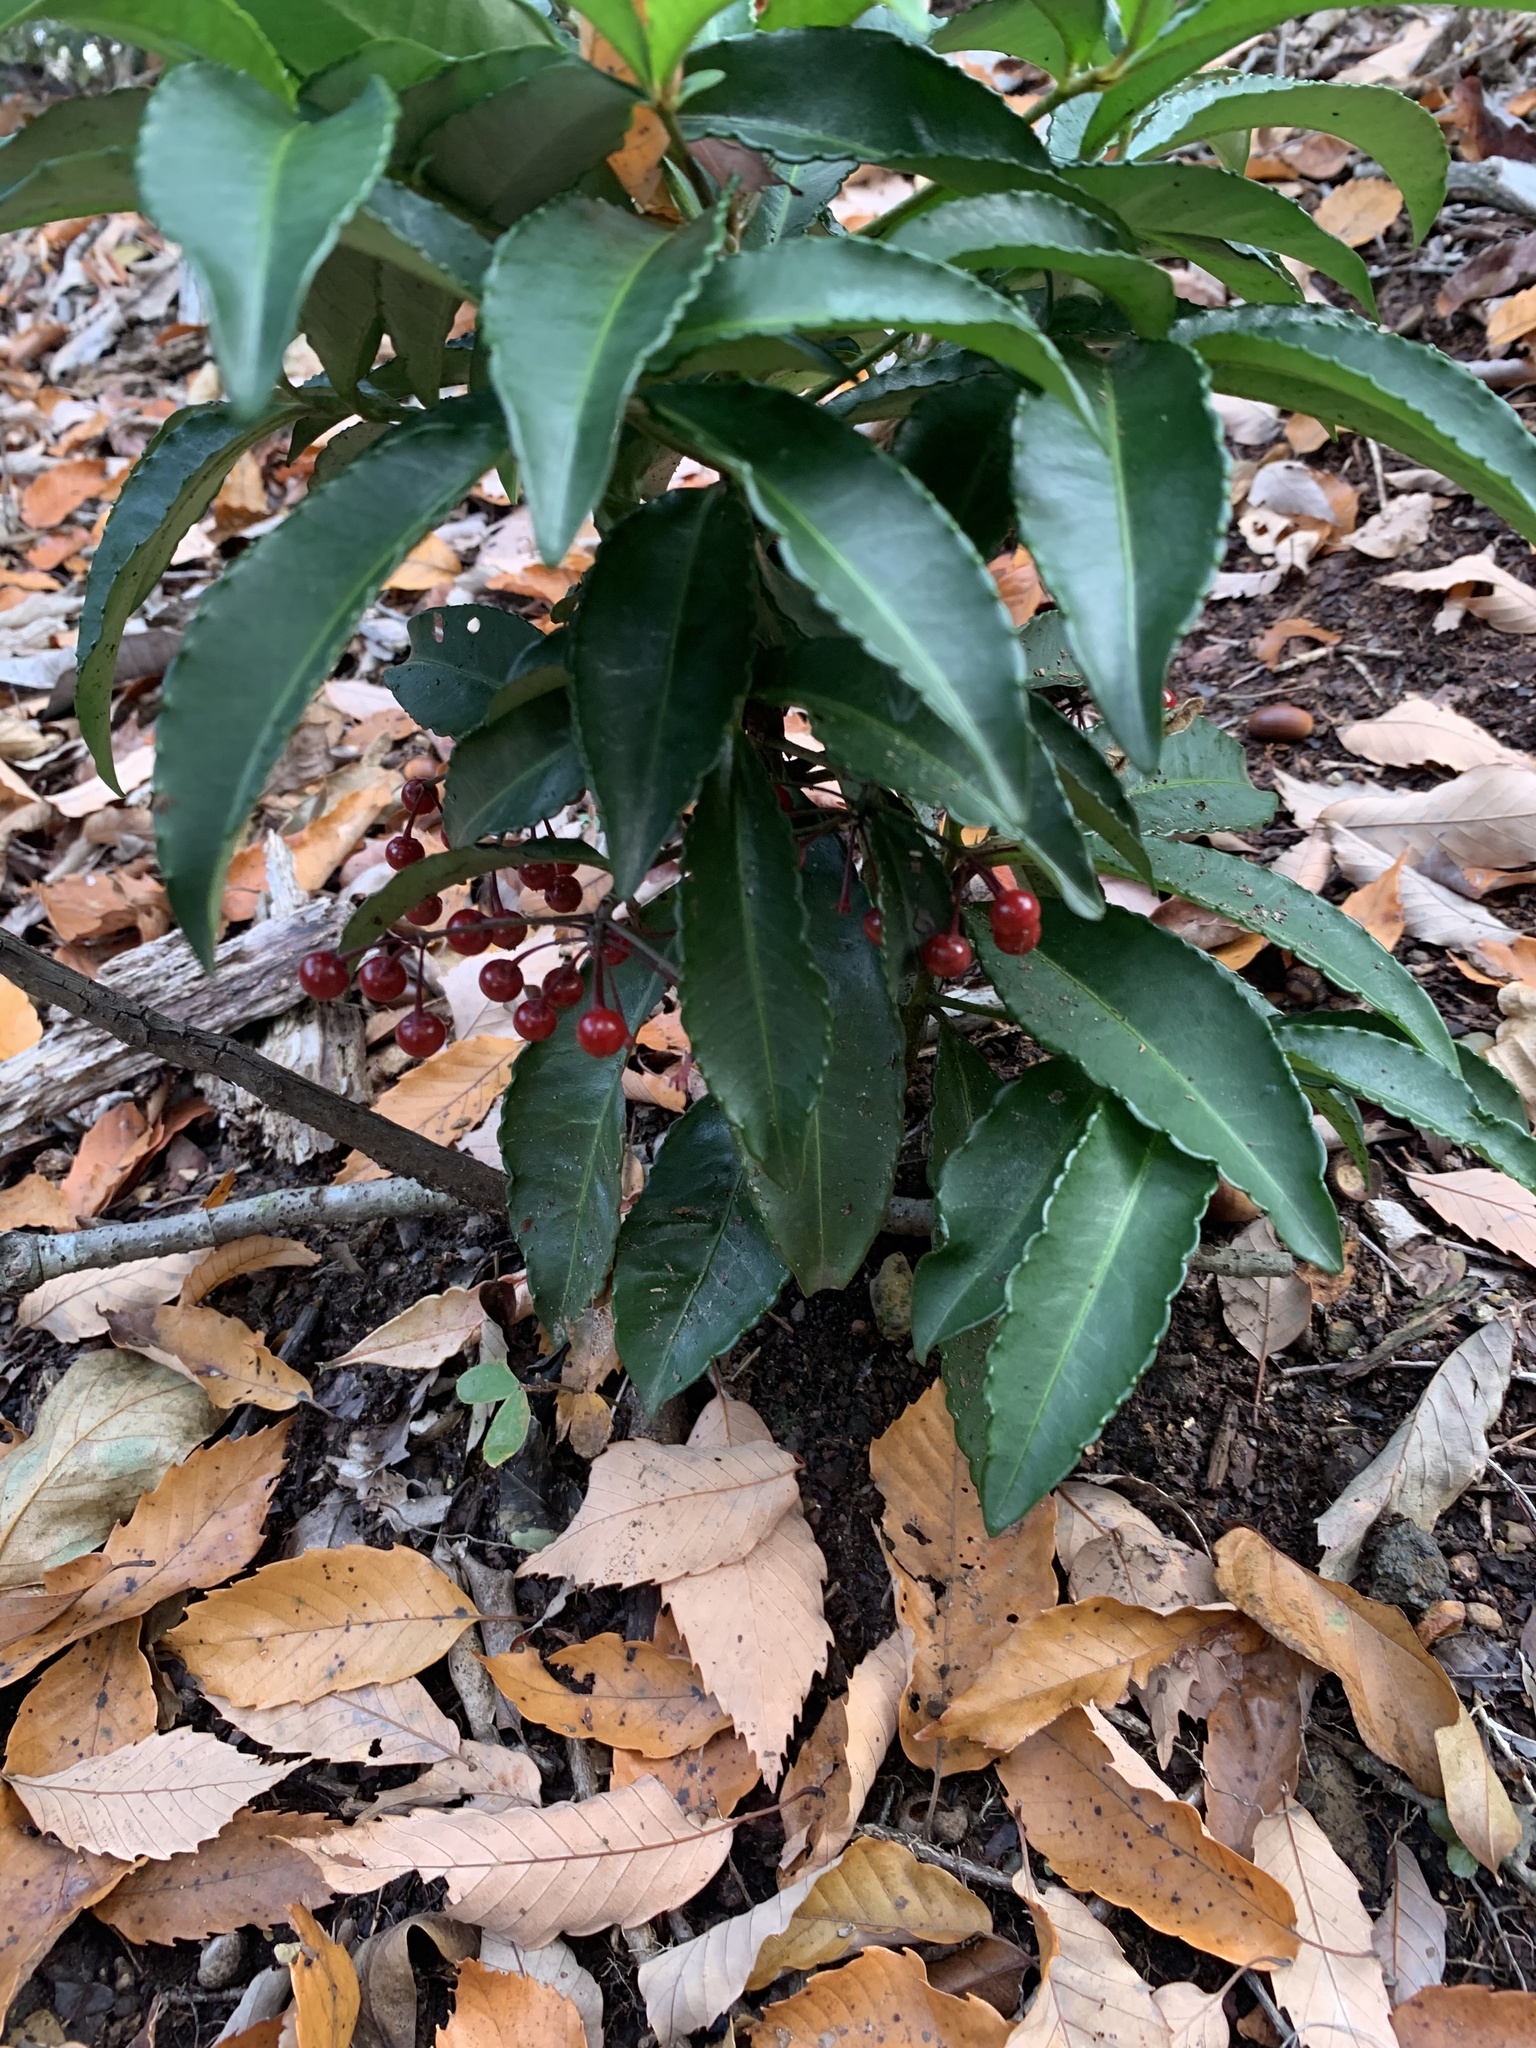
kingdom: Plantae
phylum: Tracheophyta
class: Magnoliopsida
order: Ericales
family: Primulaceae
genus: Ardisia
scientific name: Ardisia crenata
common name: Hen's eyes
